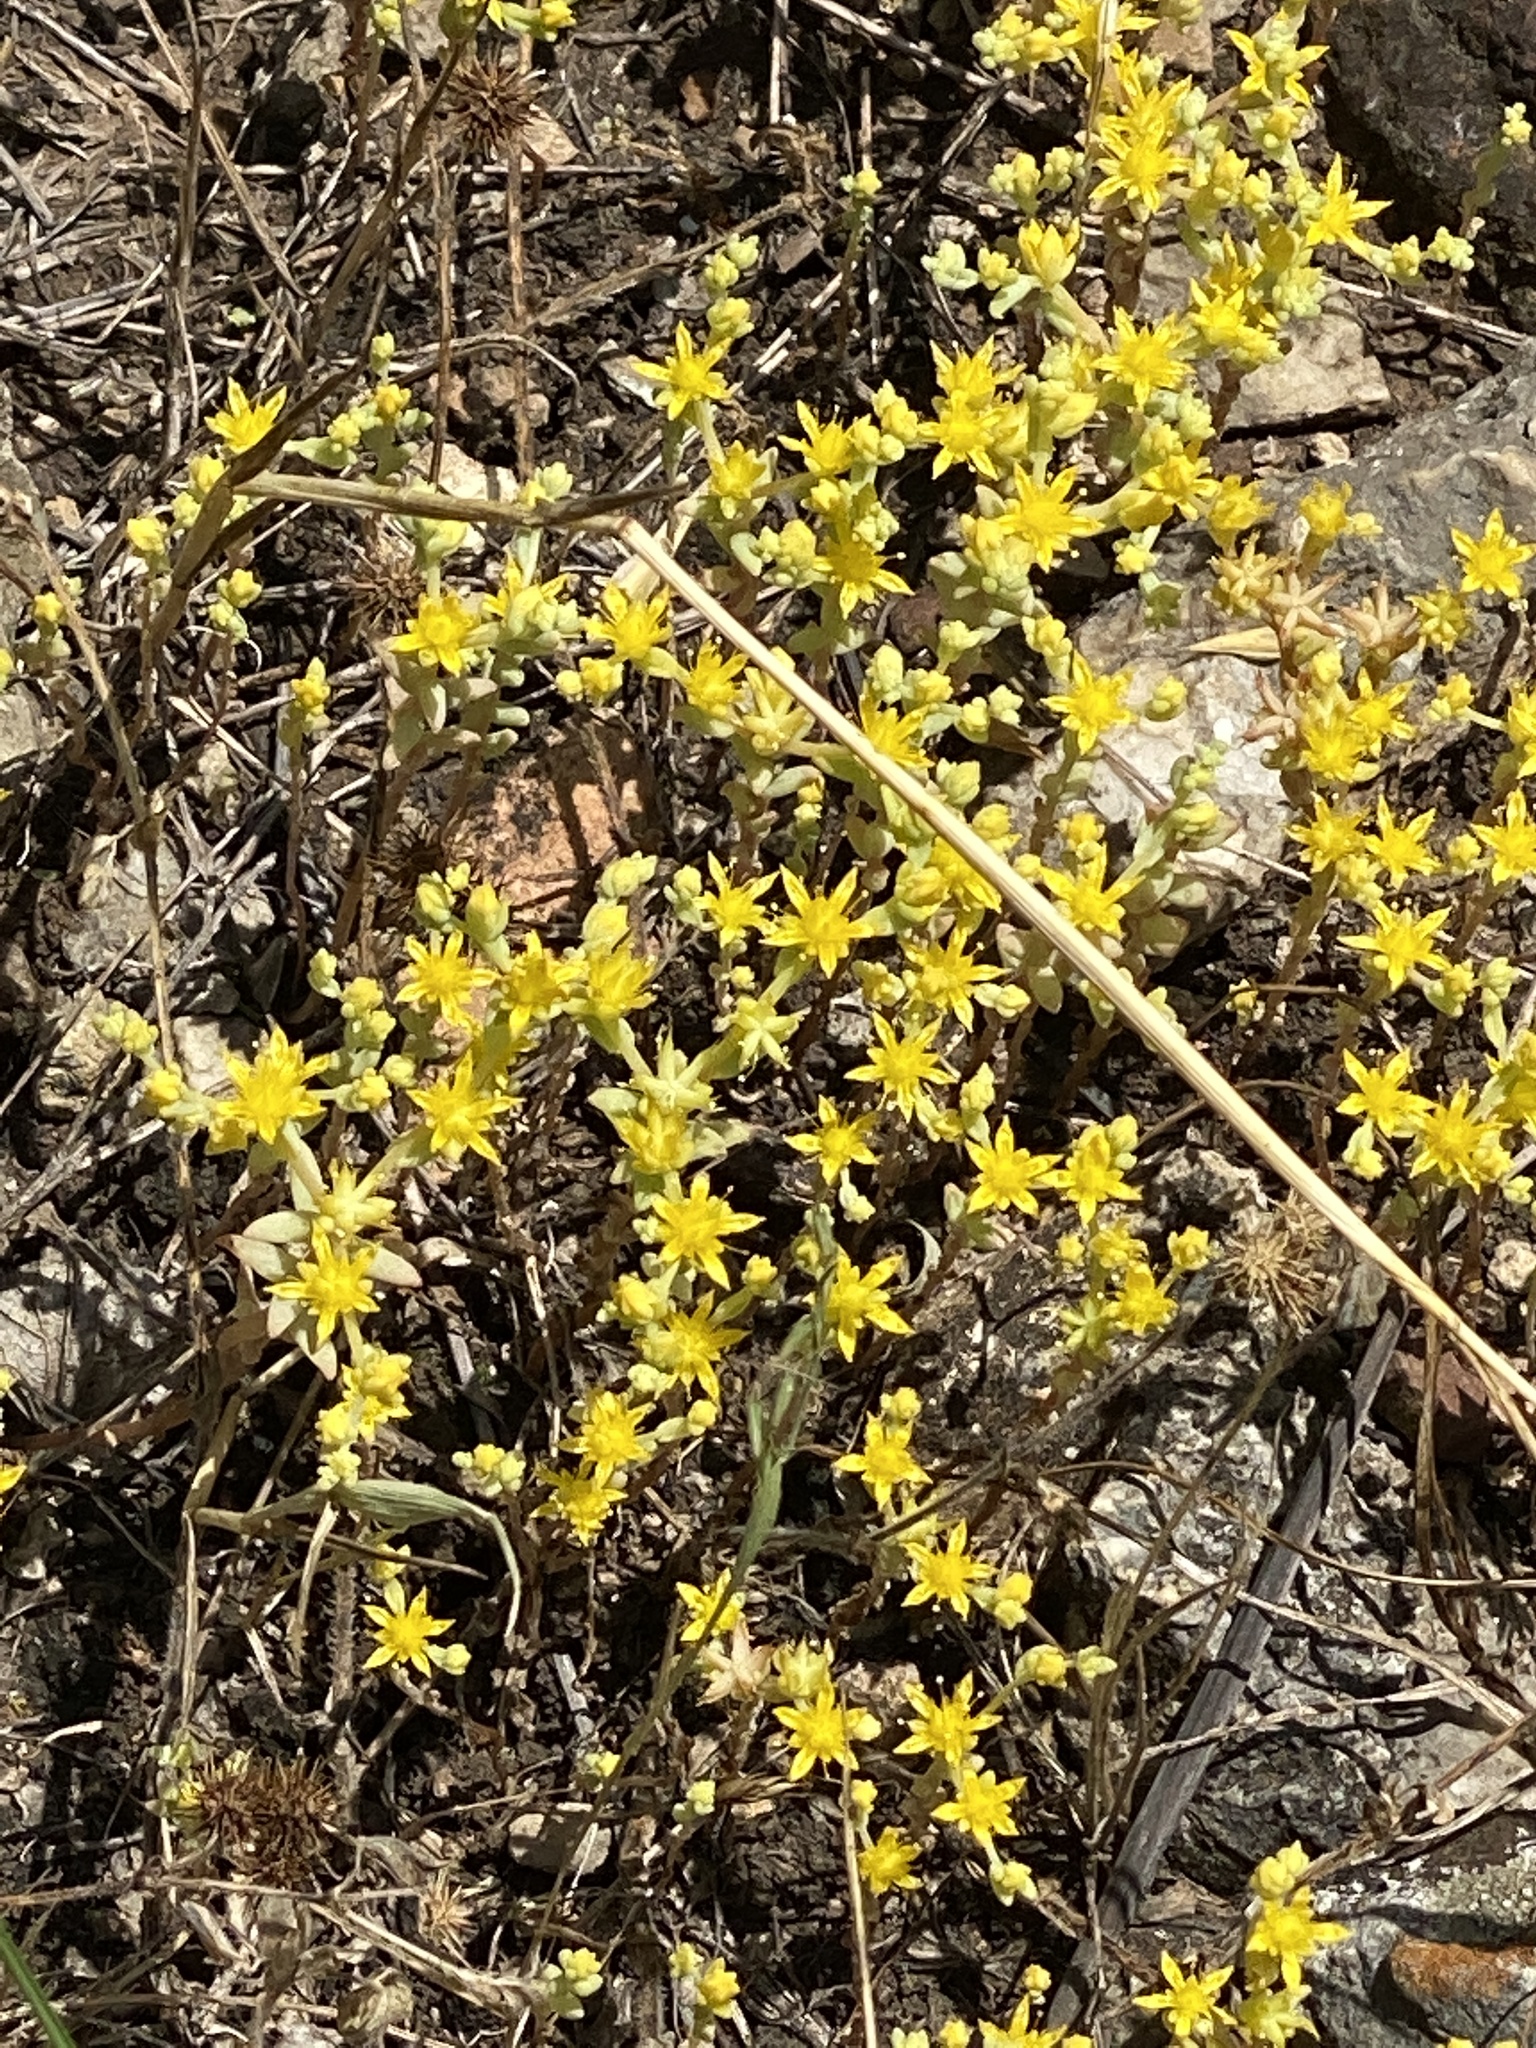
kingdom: Plantae
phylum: Tracheophyta
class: Magnoliopsida
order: Saxifragales
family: Crassulaceae
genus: Sedum
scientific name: Sedum nuttallii
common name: Yellow stonecrop
